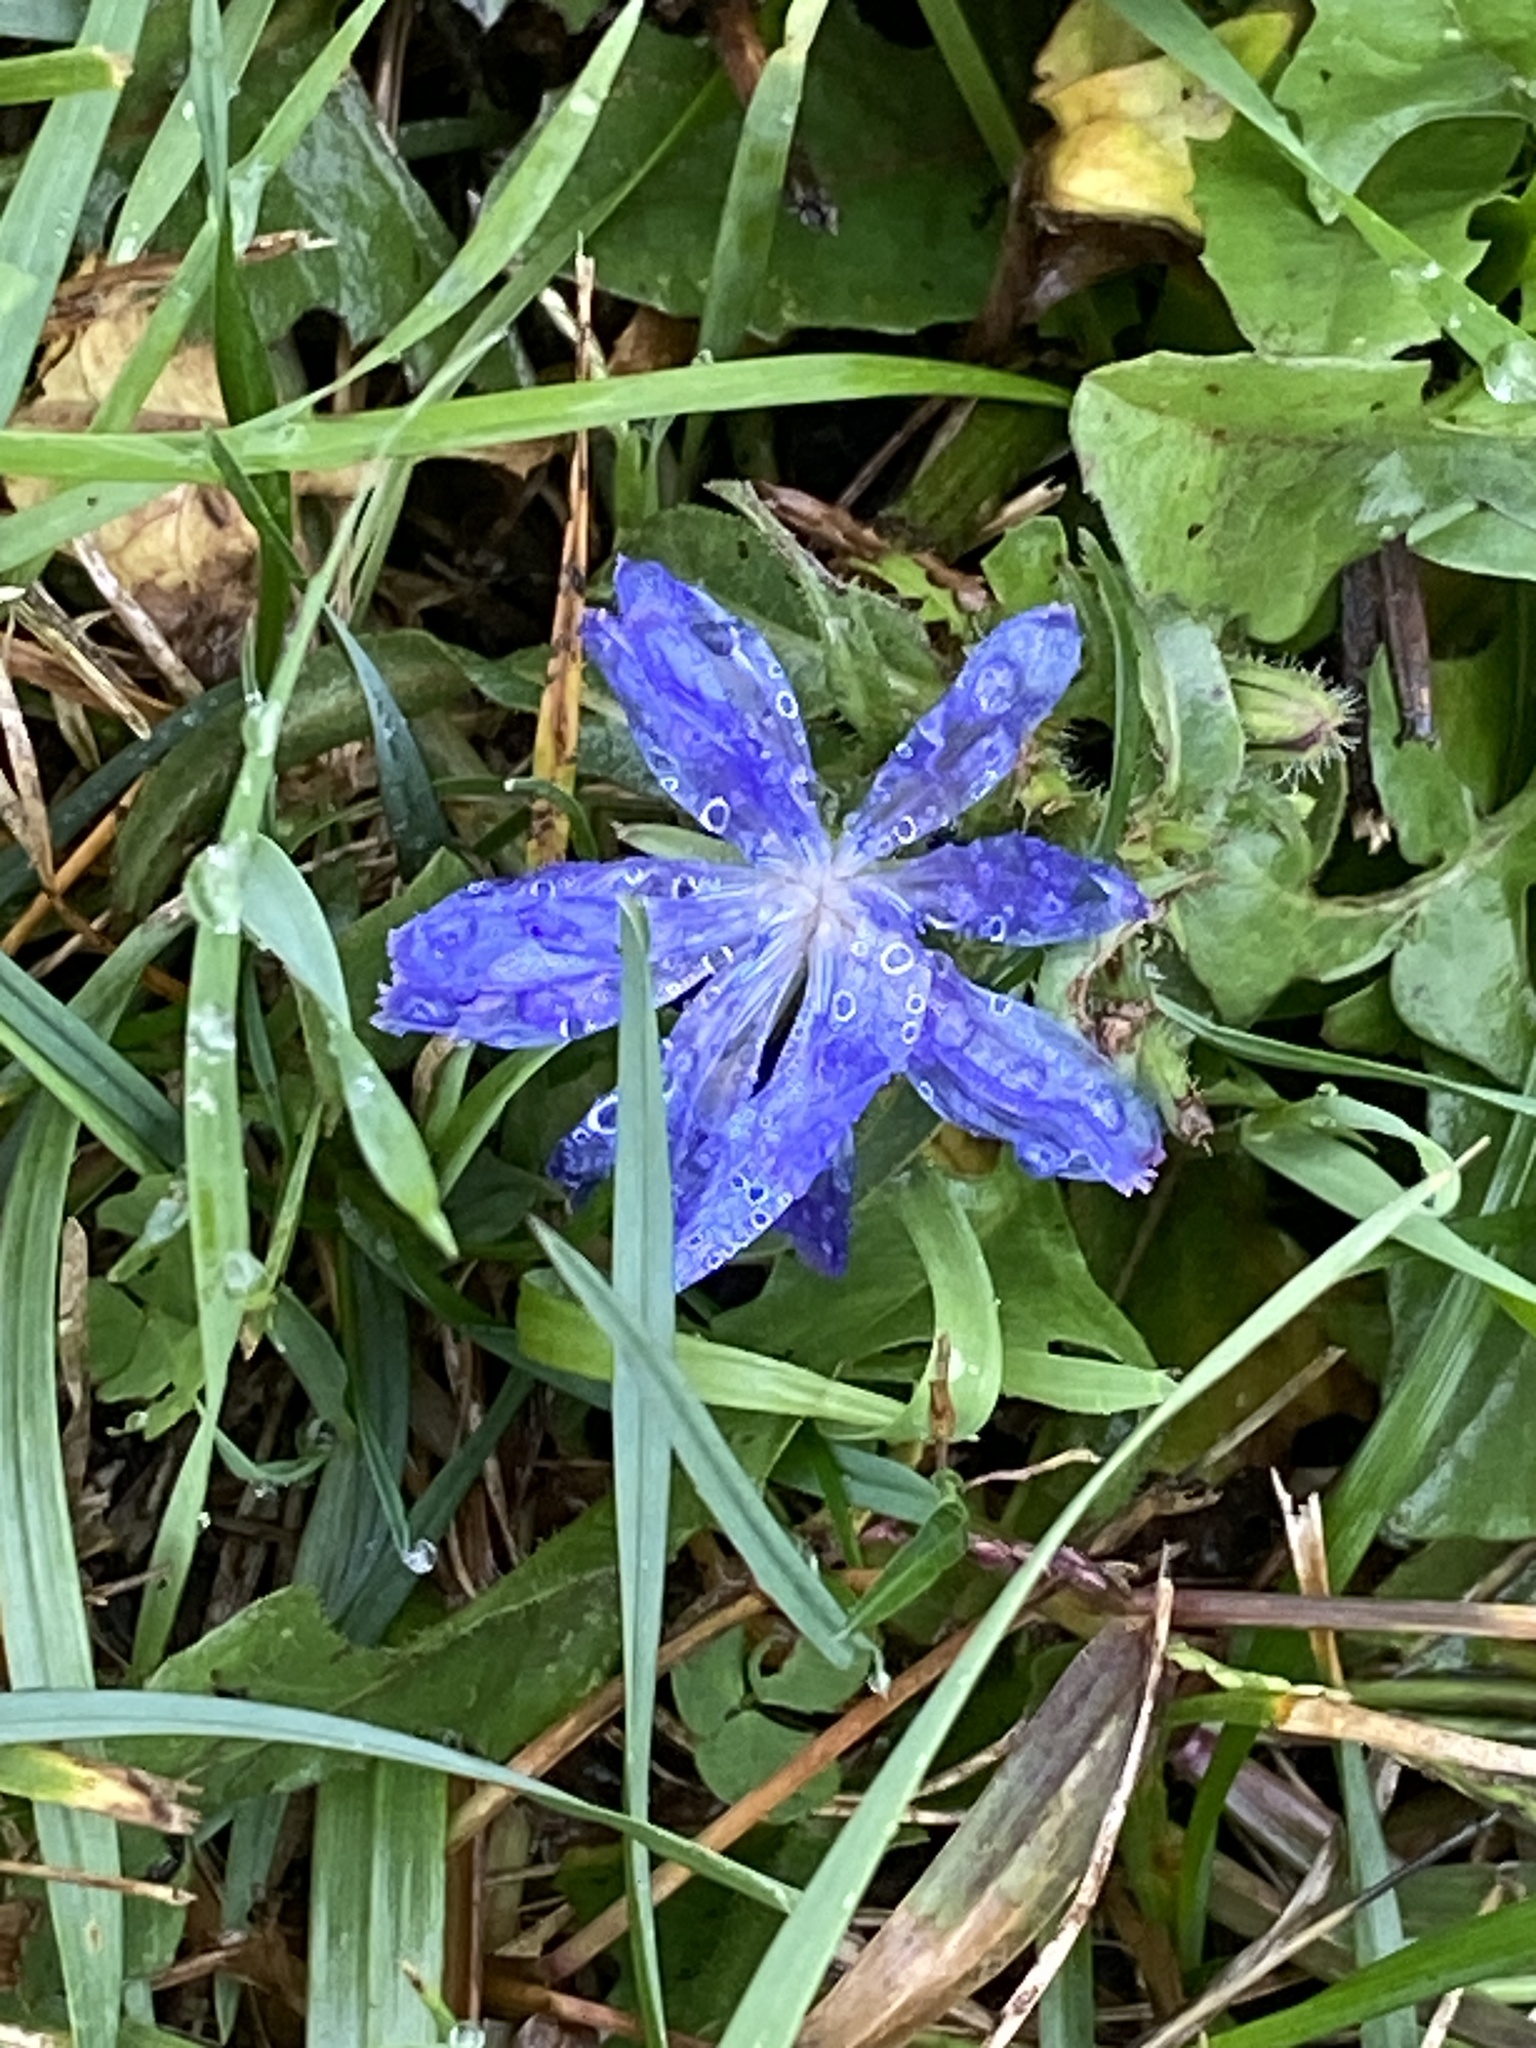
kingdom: Plantae
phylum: Tracheophyta
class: Magnoliopsida
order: Asterales
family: Asteraceae
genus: Cichorium
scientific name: Cichorium intybus
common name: Chicory
